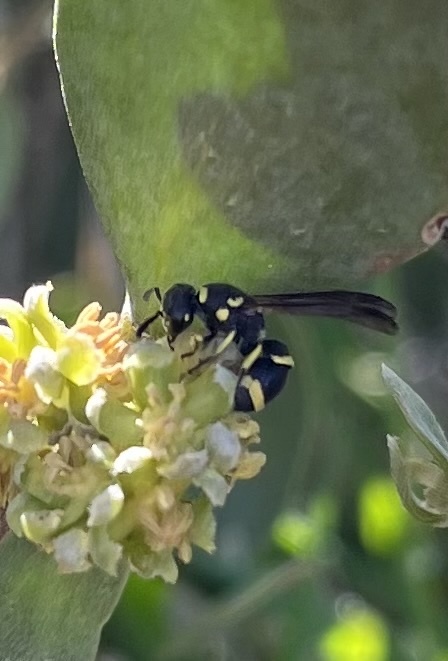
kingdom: Animalia
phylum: Arthropoda
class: Insecta
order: Hymenoptera
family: Eumenidae
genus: Parancistrocerus
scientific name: Parancistrocerus declivatus
